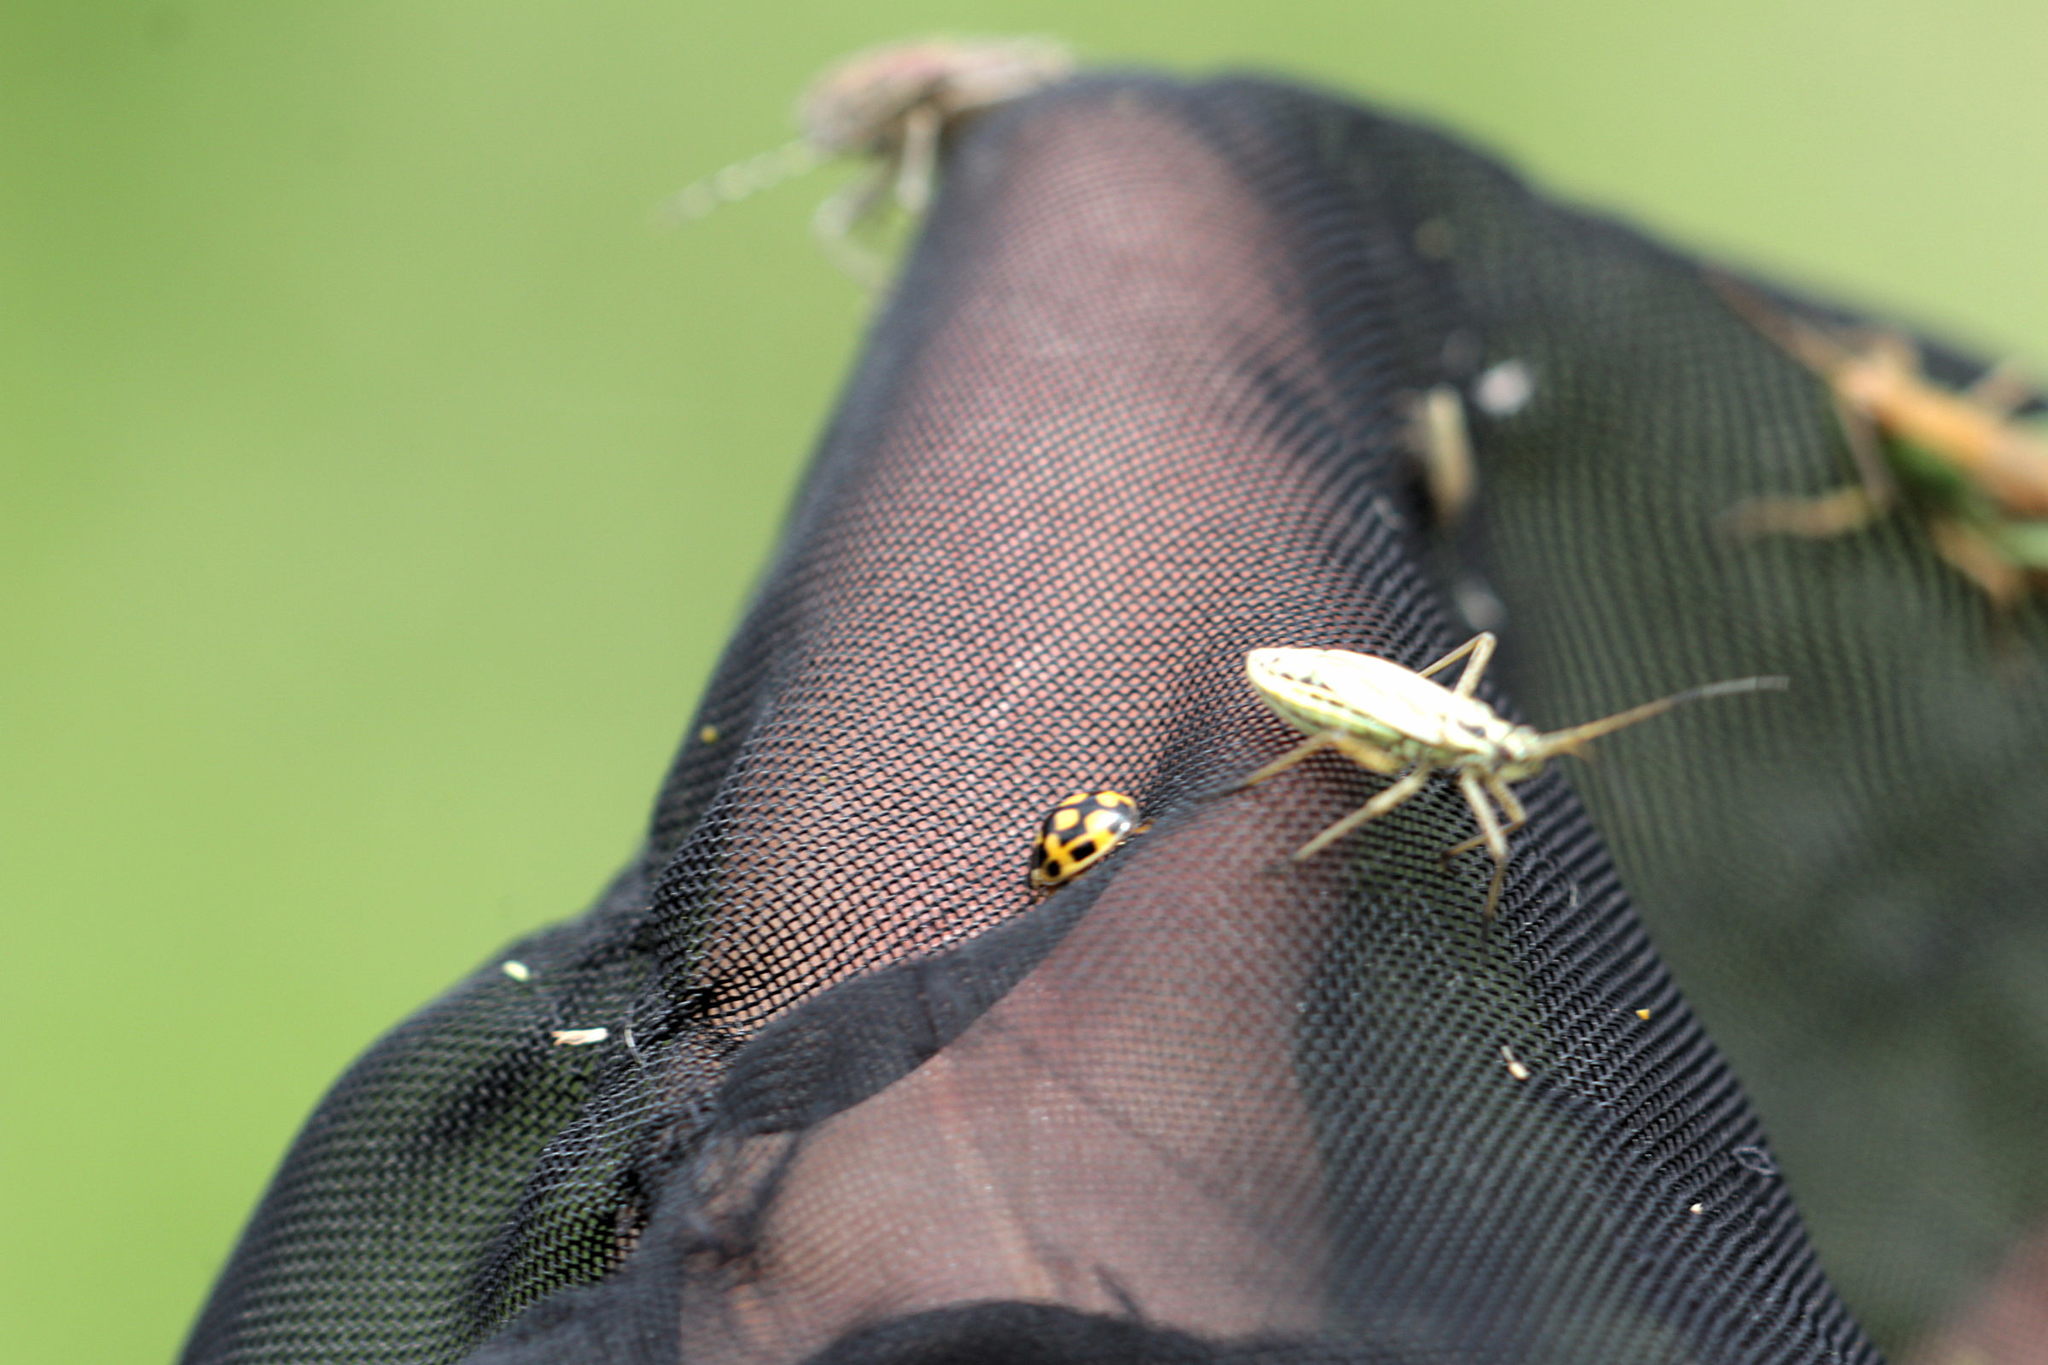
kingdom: Animalia
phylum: Arthropoda
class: Insecta
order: Coleoptera
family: Coccinellidae
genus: Propylaea
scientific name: Propylaea quatuordecimpunctata
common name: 14-spotted ladybird beetle
